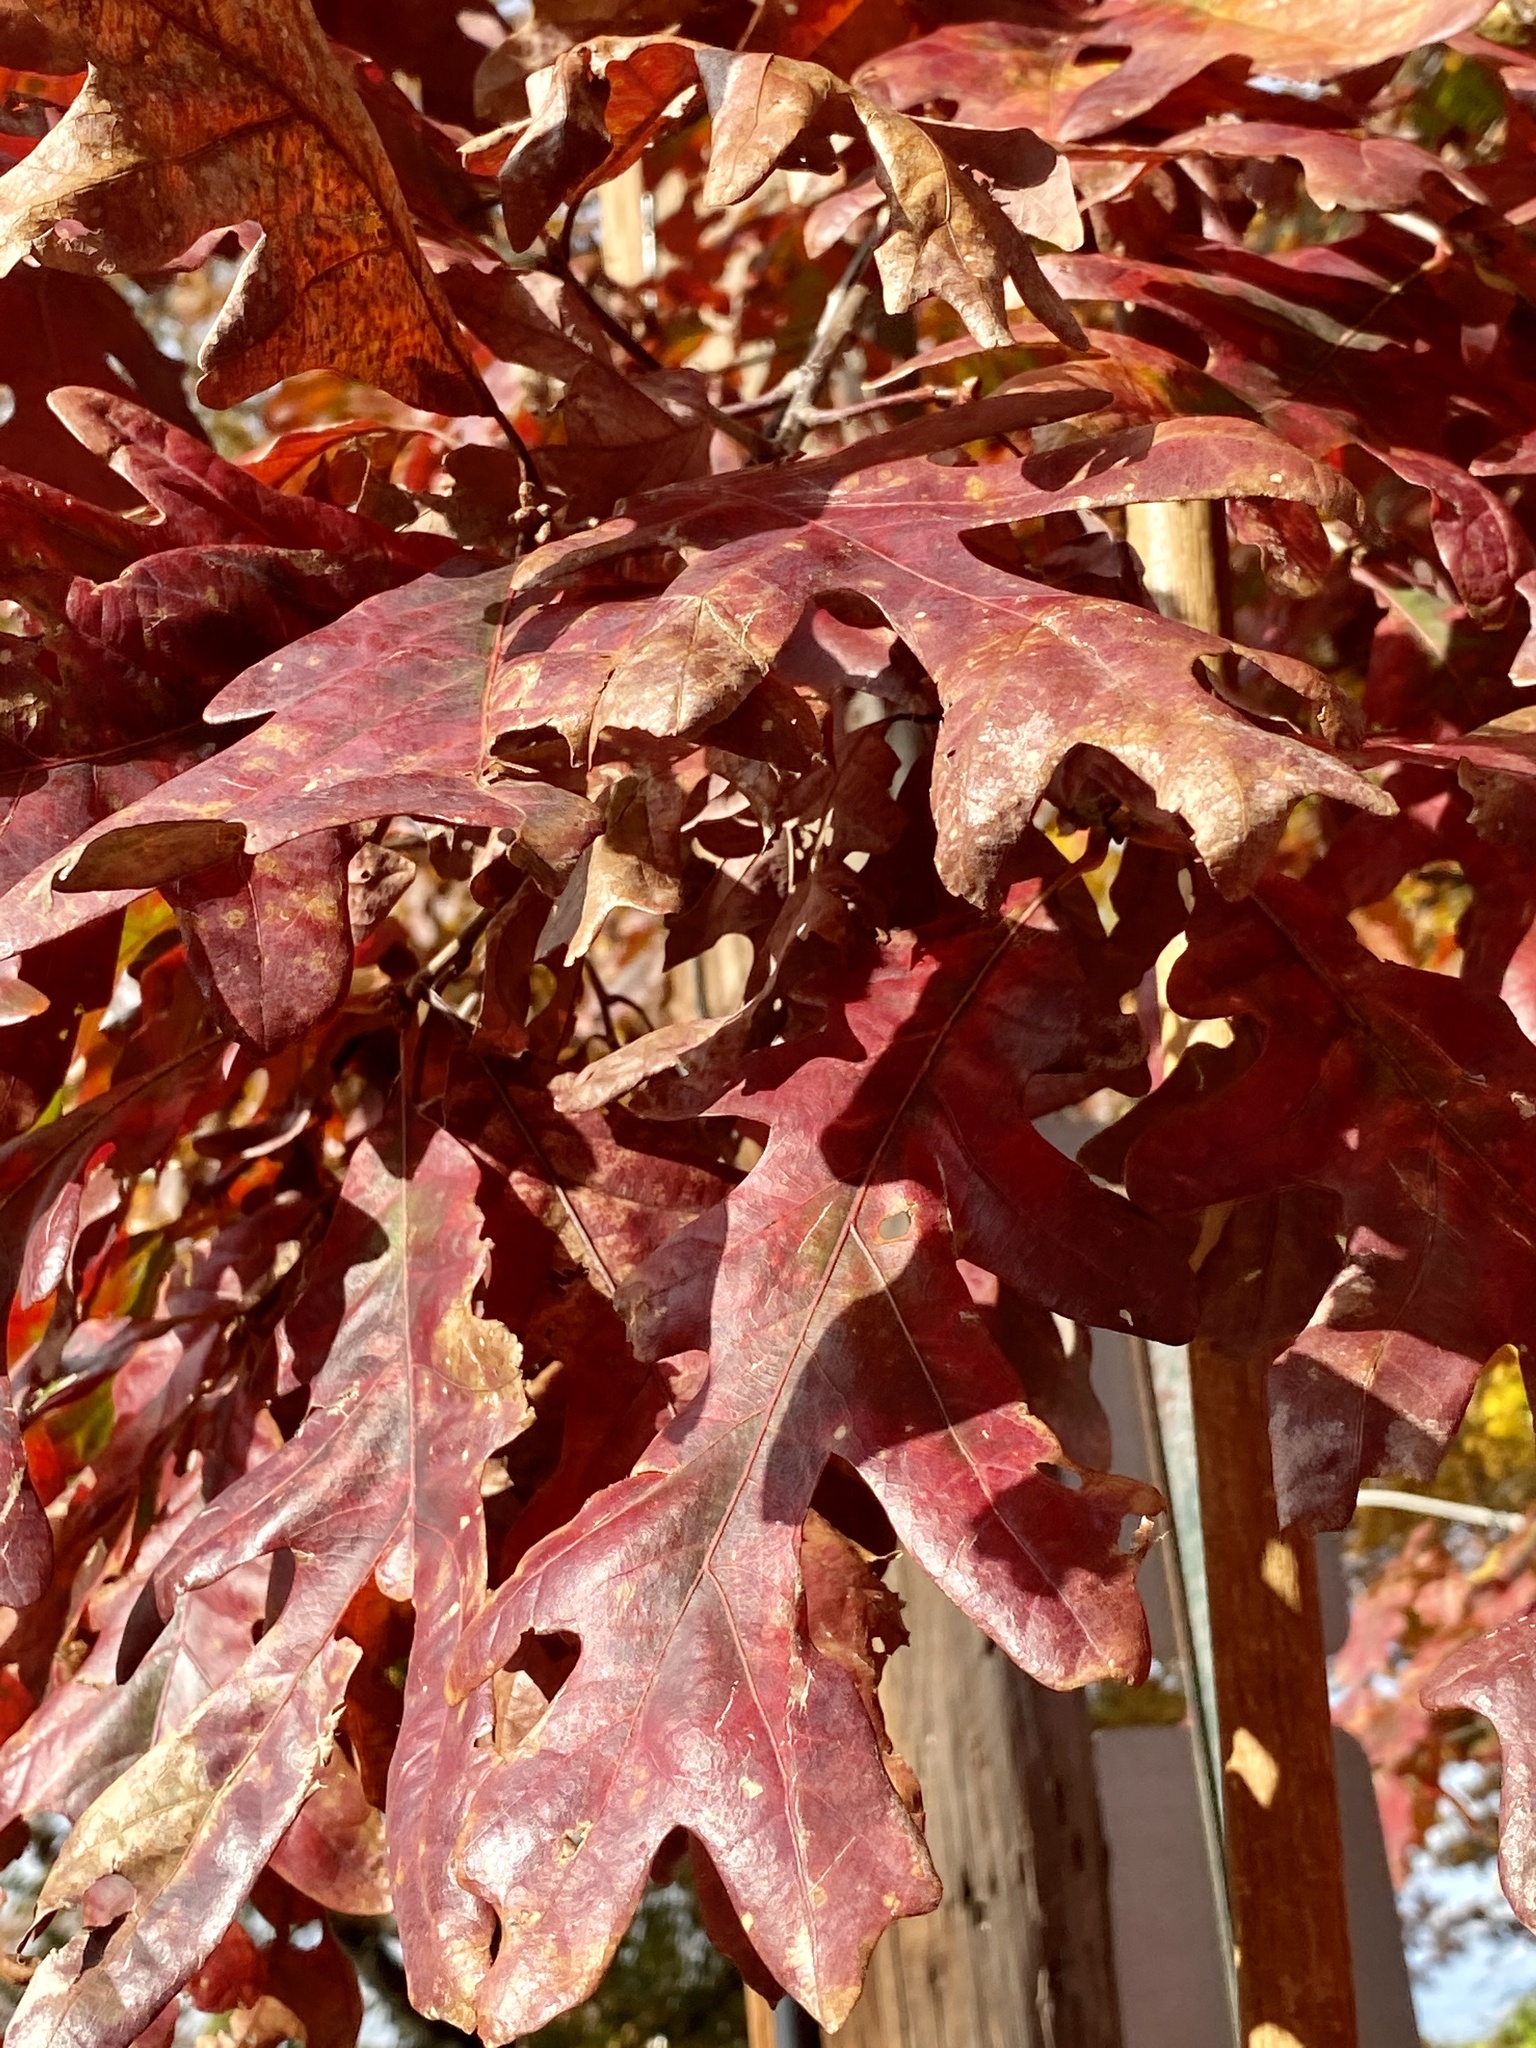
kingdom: Plantae
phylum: Tracheophyta
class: Magnoliopsida
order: Fagales
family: Fagaceae
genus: Quercus
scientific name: Quercus alba
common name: White oak
